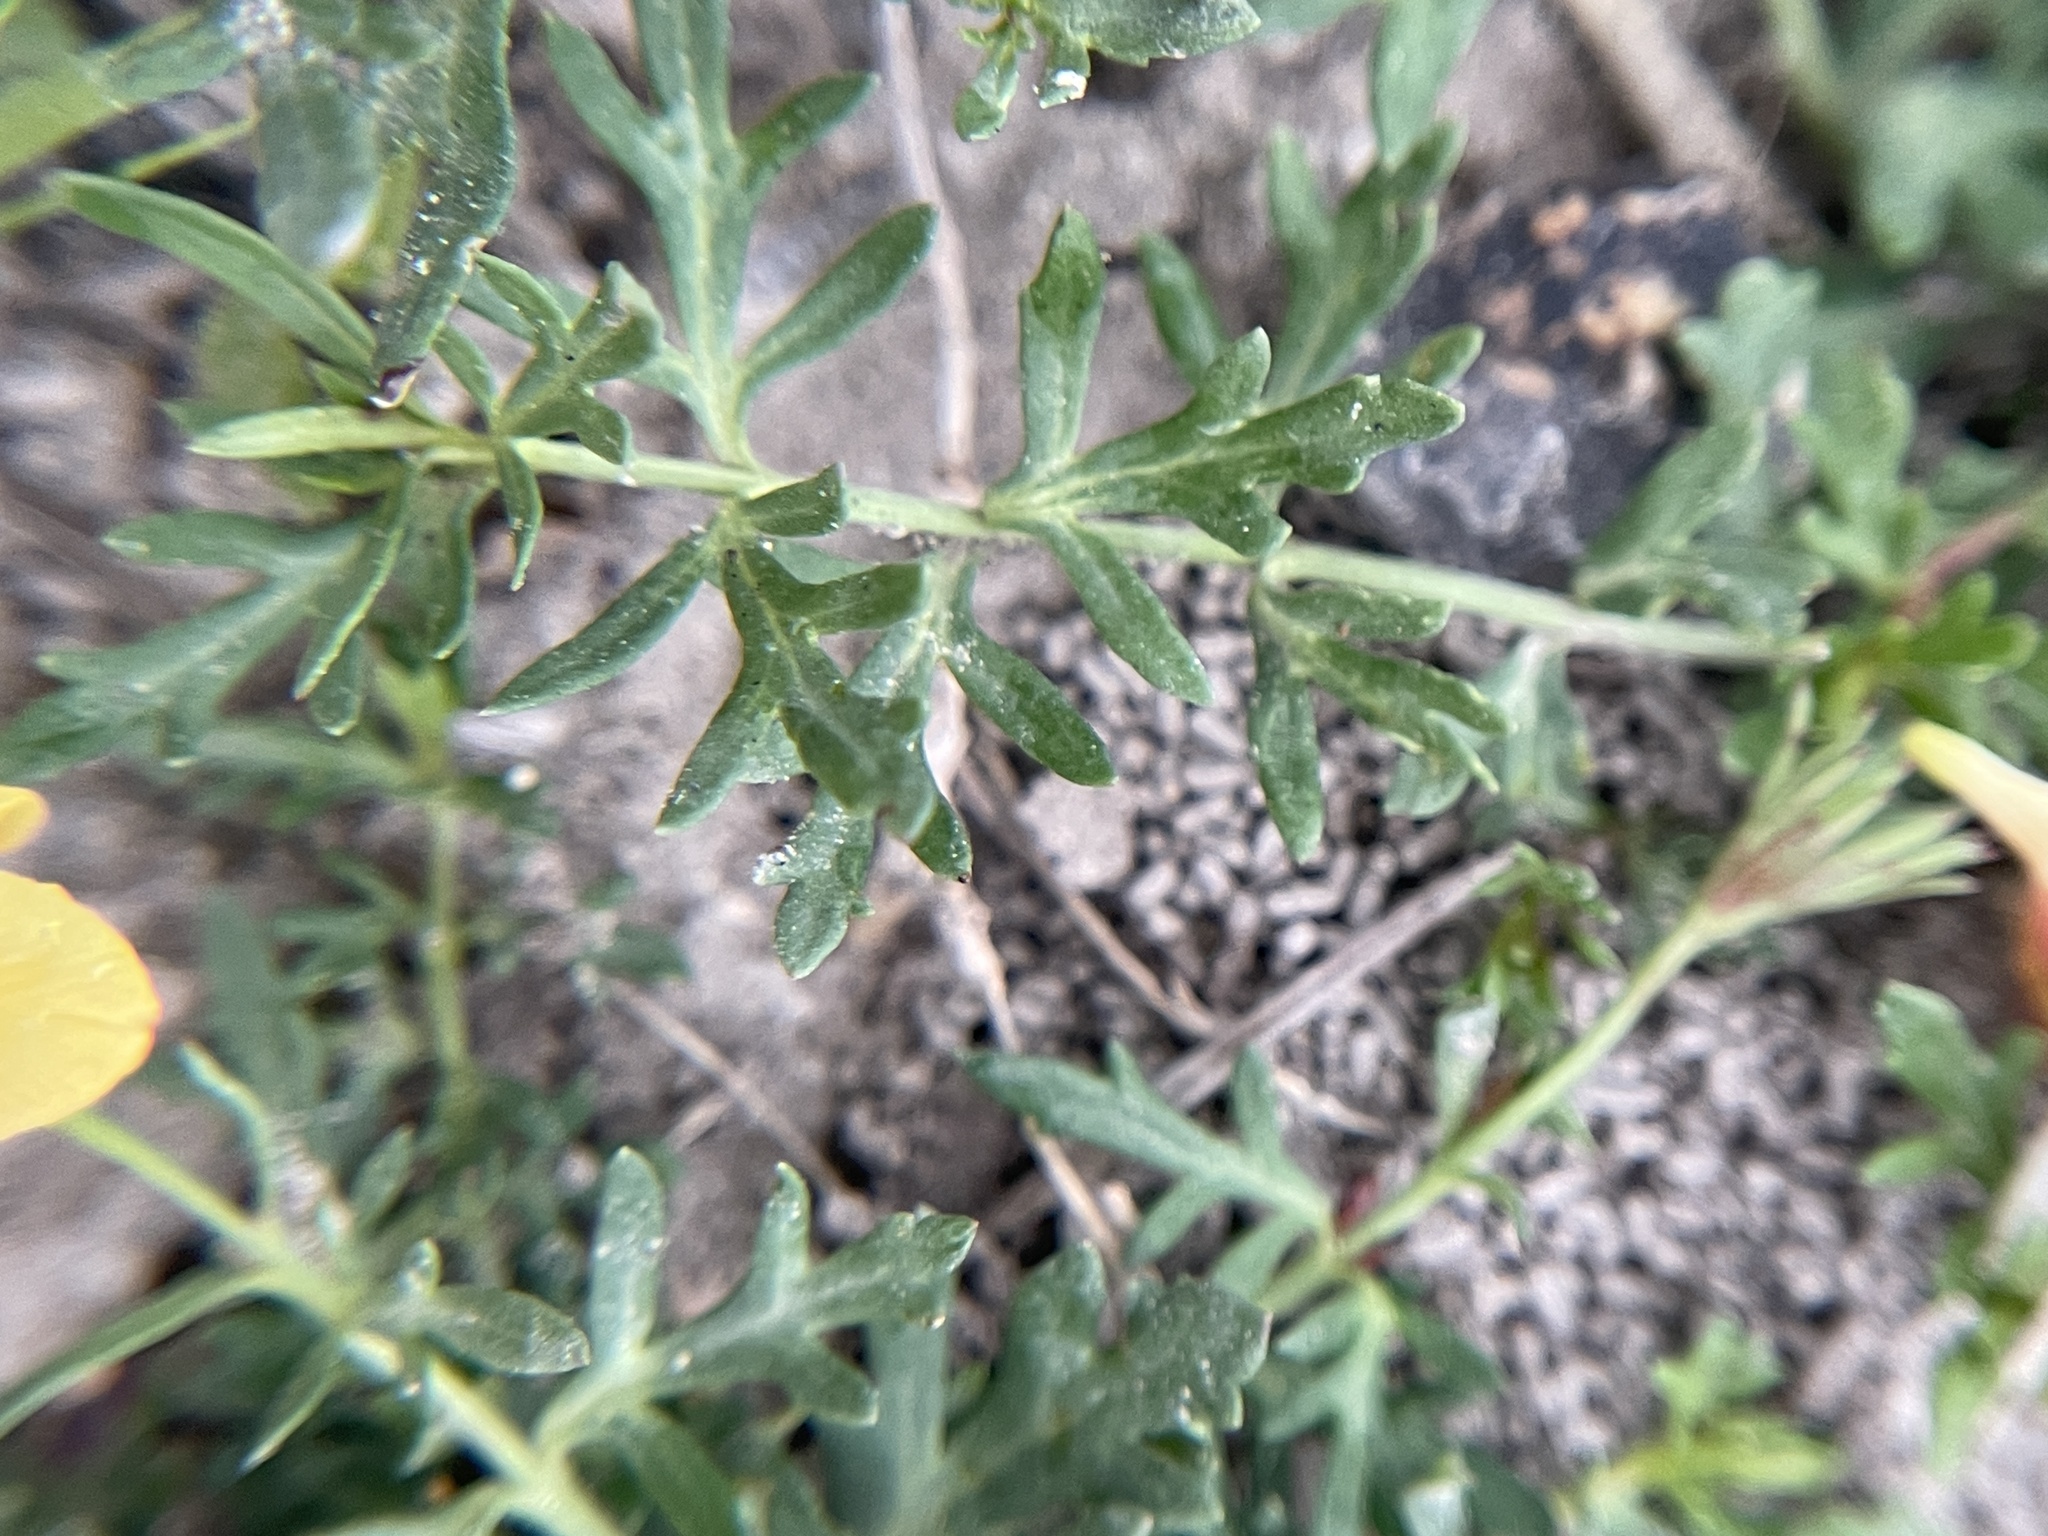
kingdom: Plantae
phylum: Tracheophyta
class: Magnoliopsida
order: Lamiales
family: Oleaceae
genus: Menodora
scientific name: Menodora heterophylla
